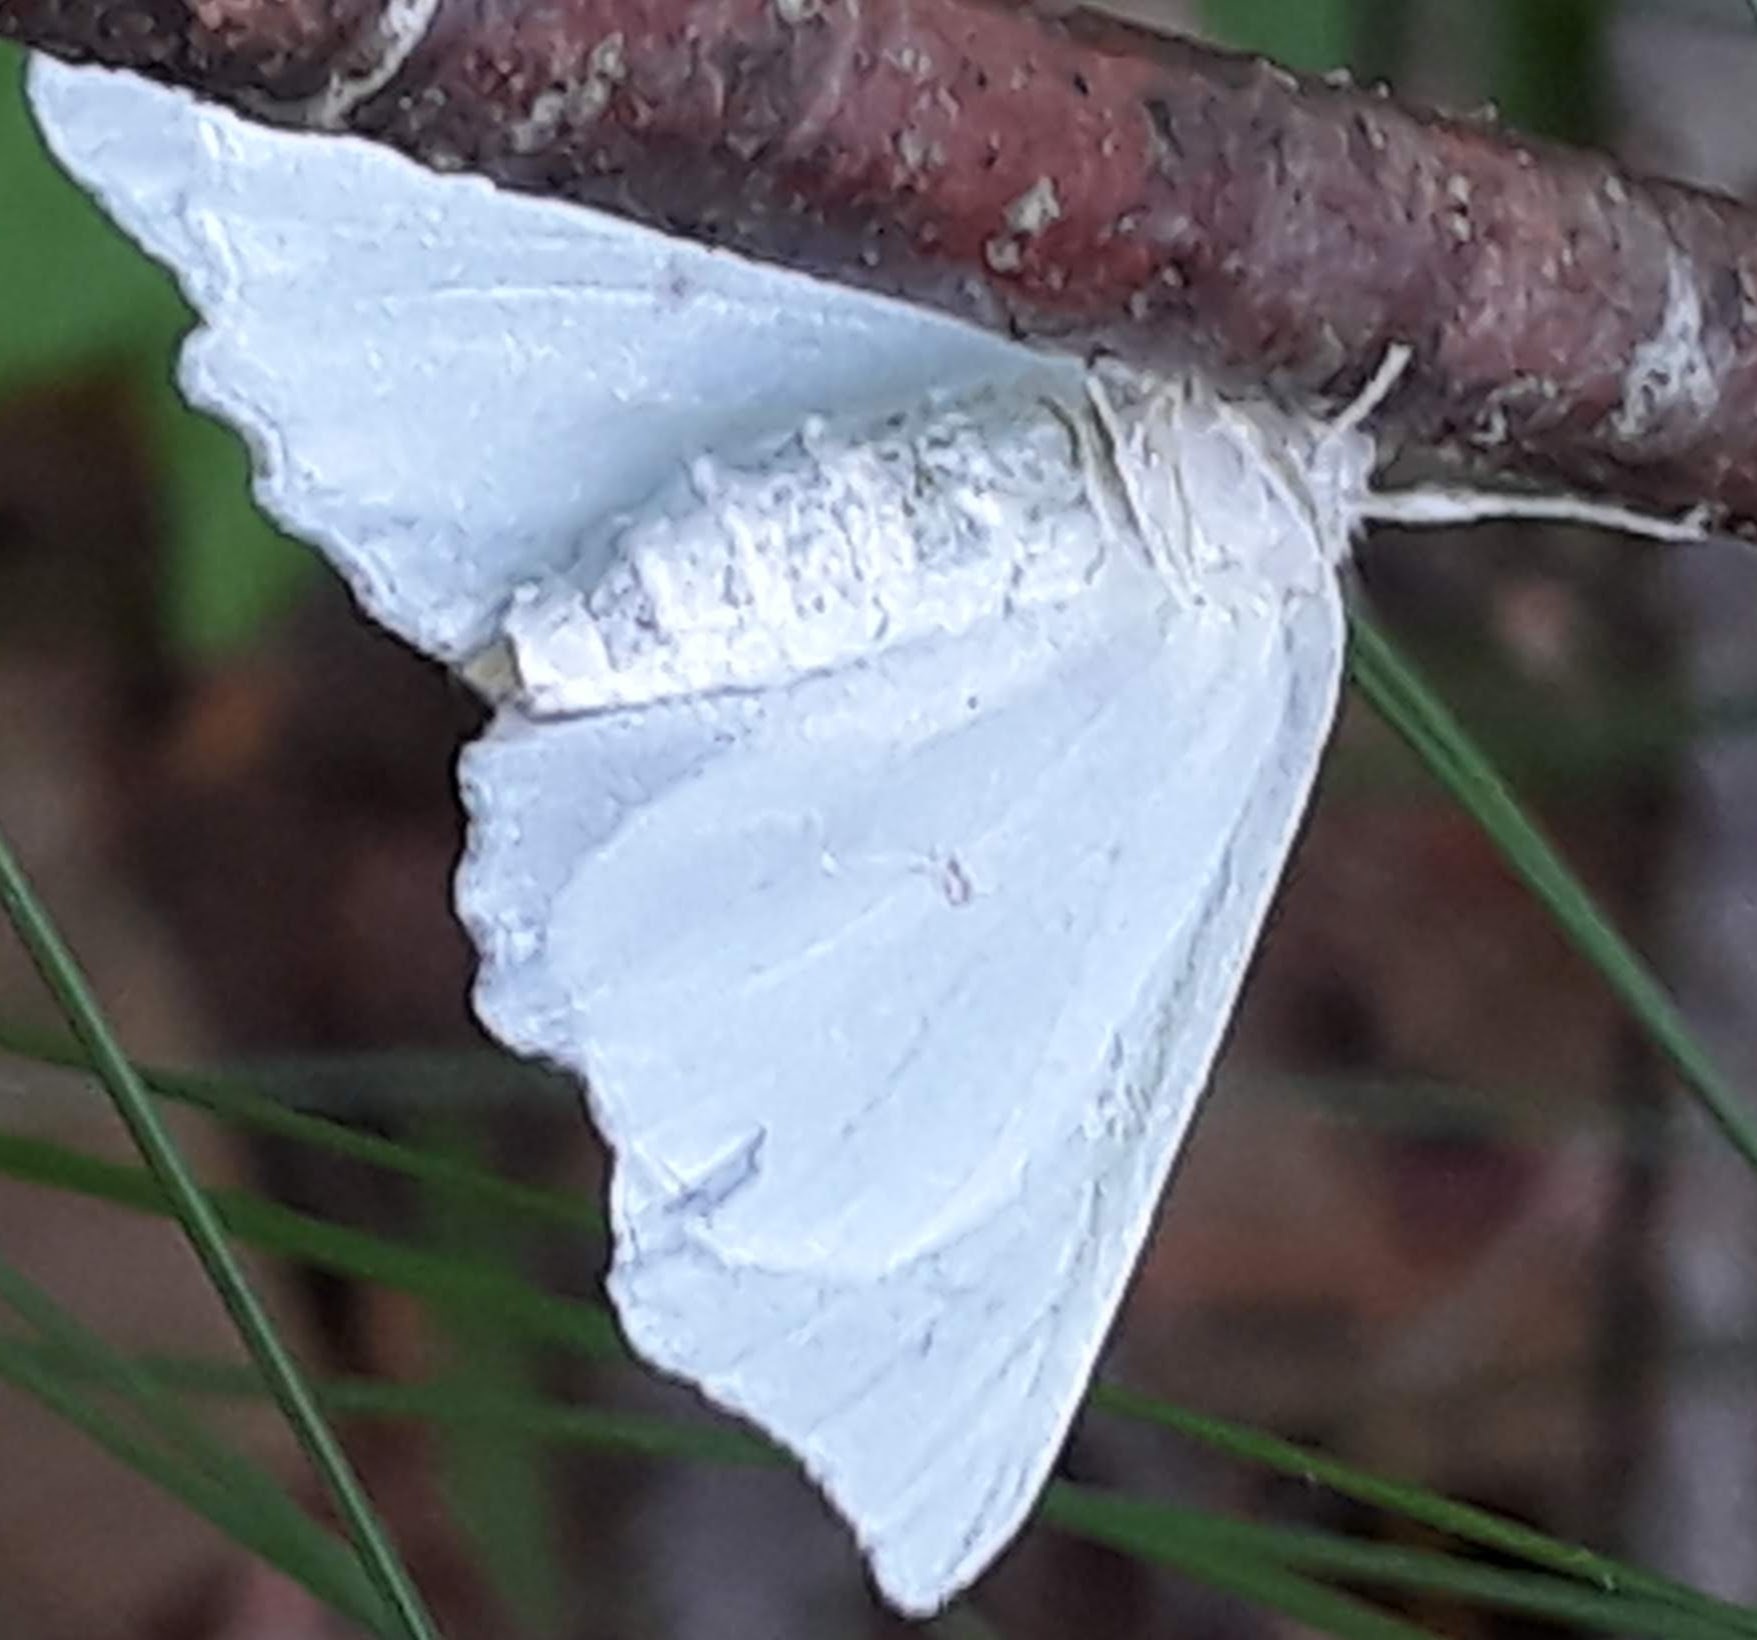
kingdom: Animalia
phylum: Arthropoda
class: Insecta
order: Lepidoptera
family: Geometridae
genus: Ennomos
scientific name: Ennomos subsignaria
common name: Elm spanworm
